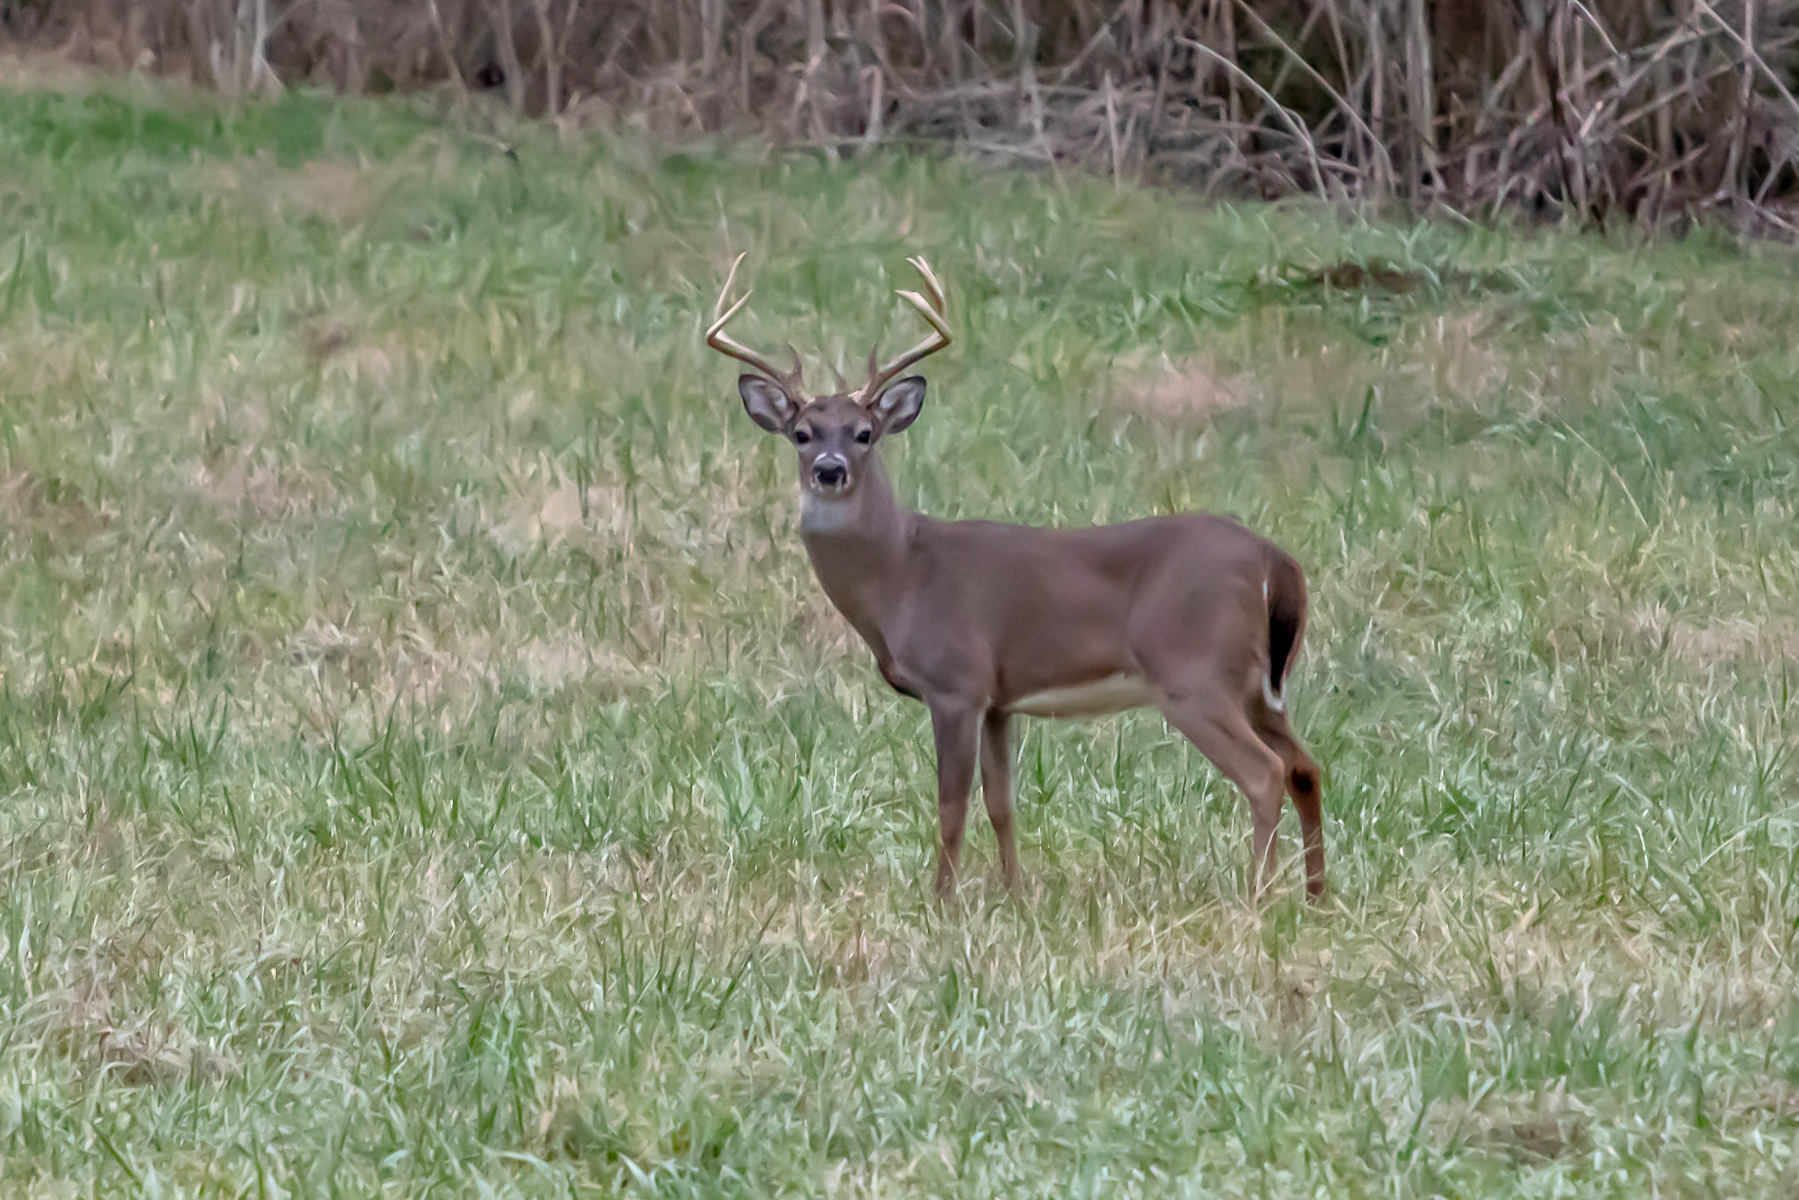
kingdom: Animalia
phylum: Chordata
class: Mammalia
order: Artiodactyla
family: Cervidae
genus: Odocoileus
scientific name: Odocoileus virginianus
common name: White-tailed deer
